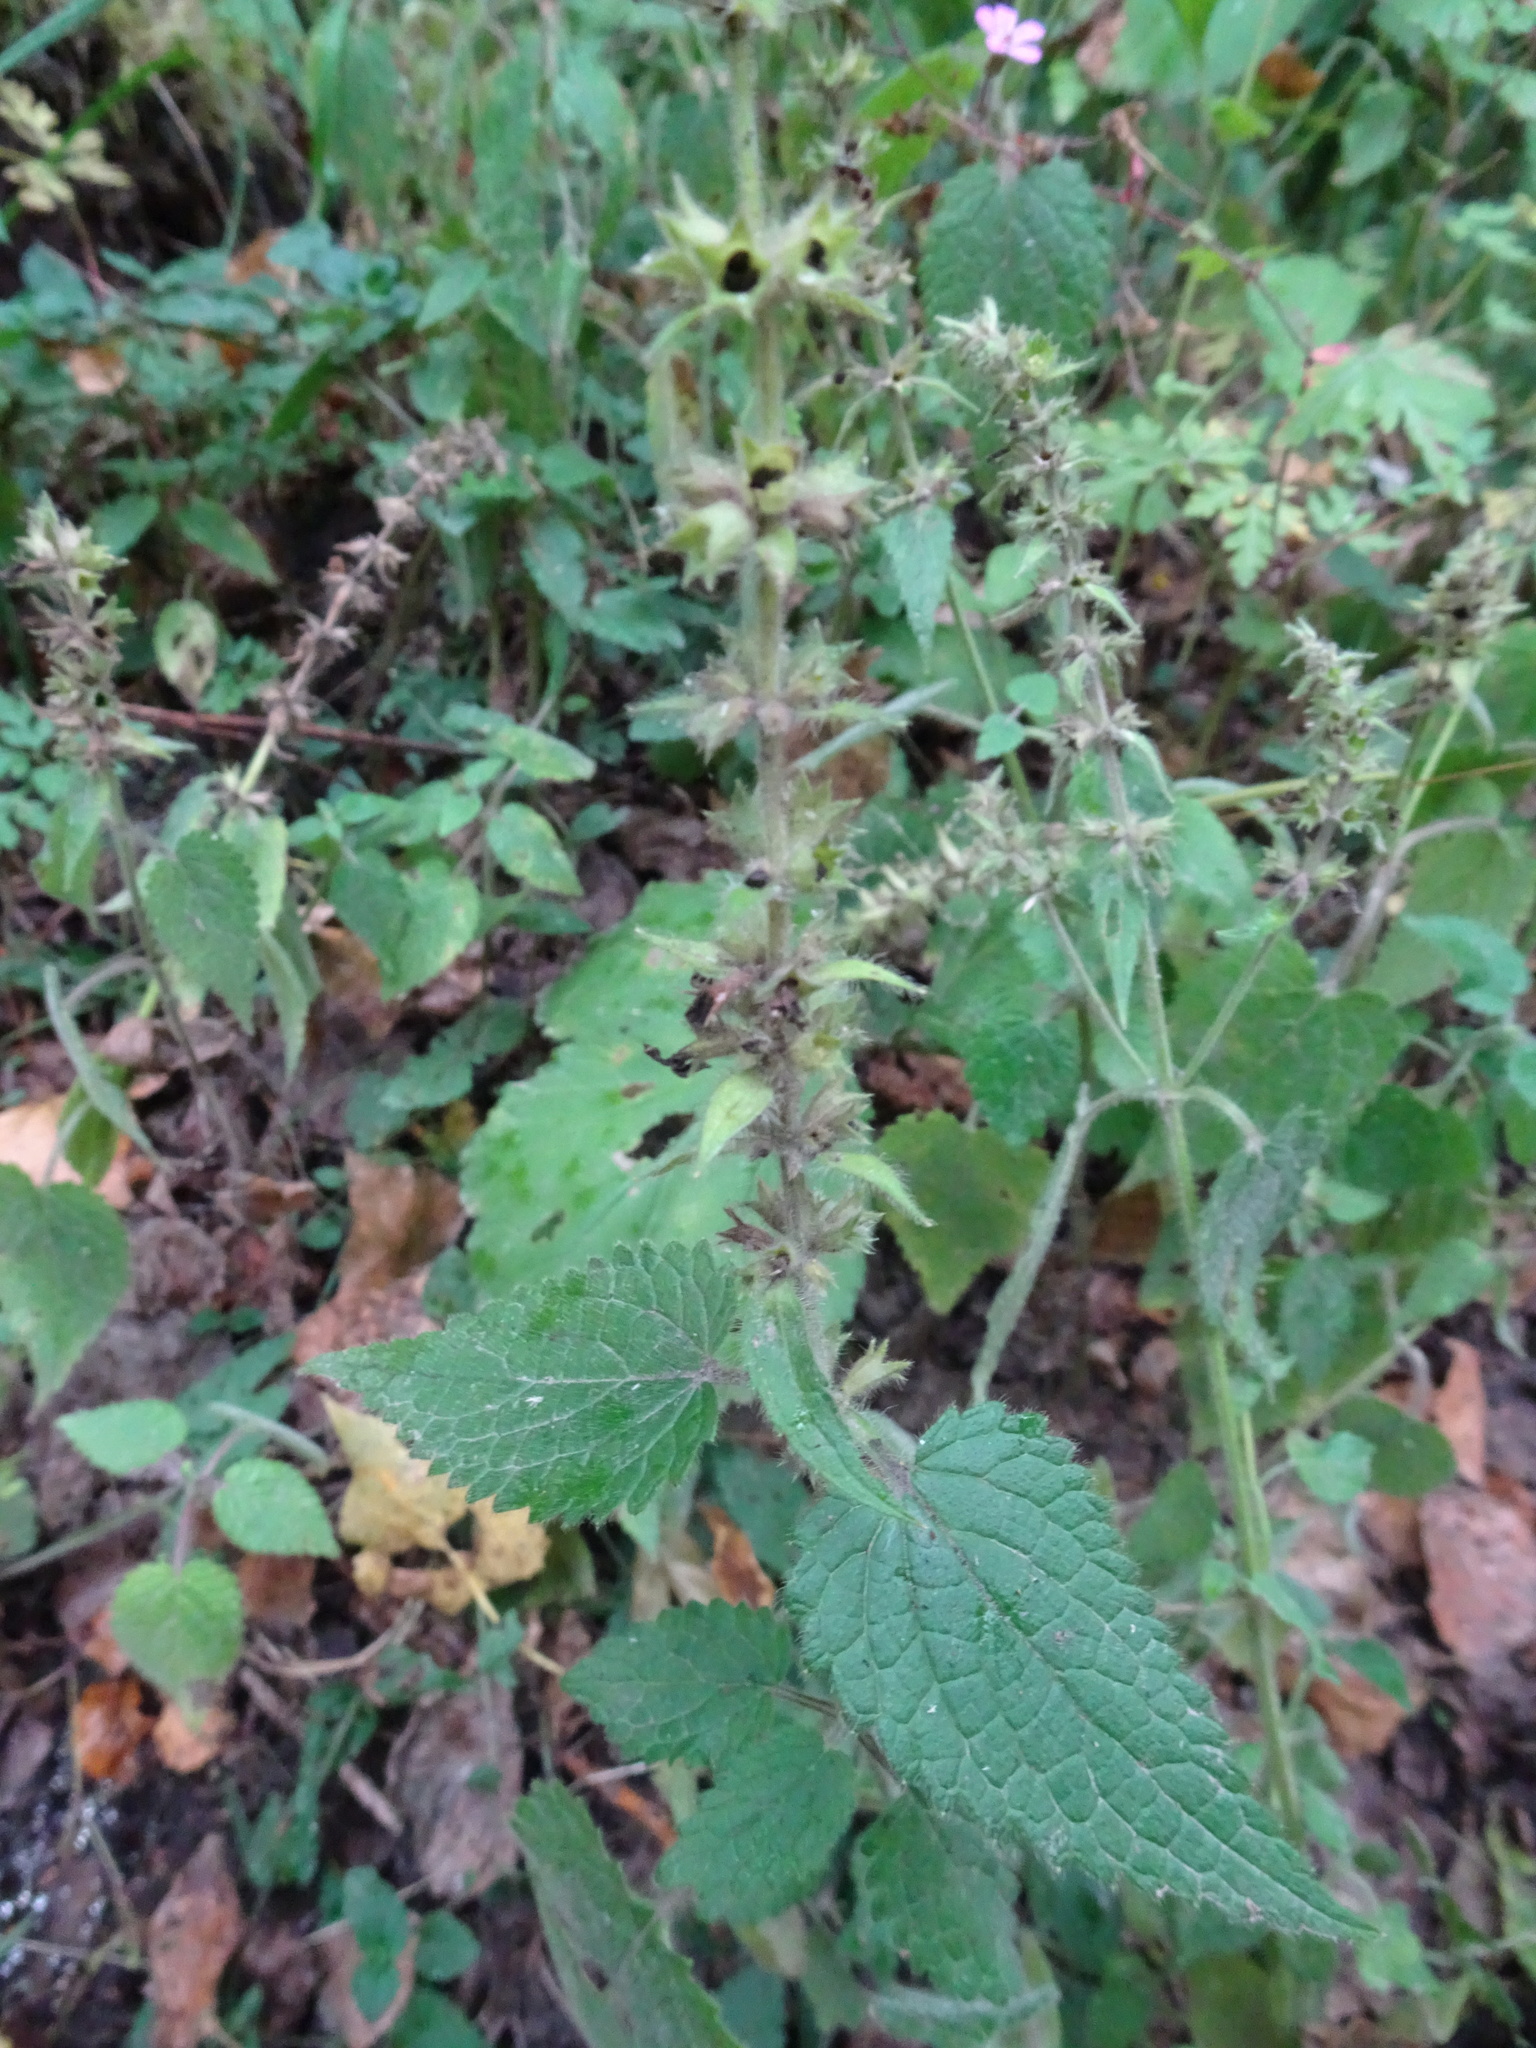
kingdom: Plantae
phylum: Tracheophyta
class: Magnoliopsida
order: Lamiales
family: Lamiaceae
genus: Stachys
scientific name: Stachys sylvatica
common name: Hedge woundwort
